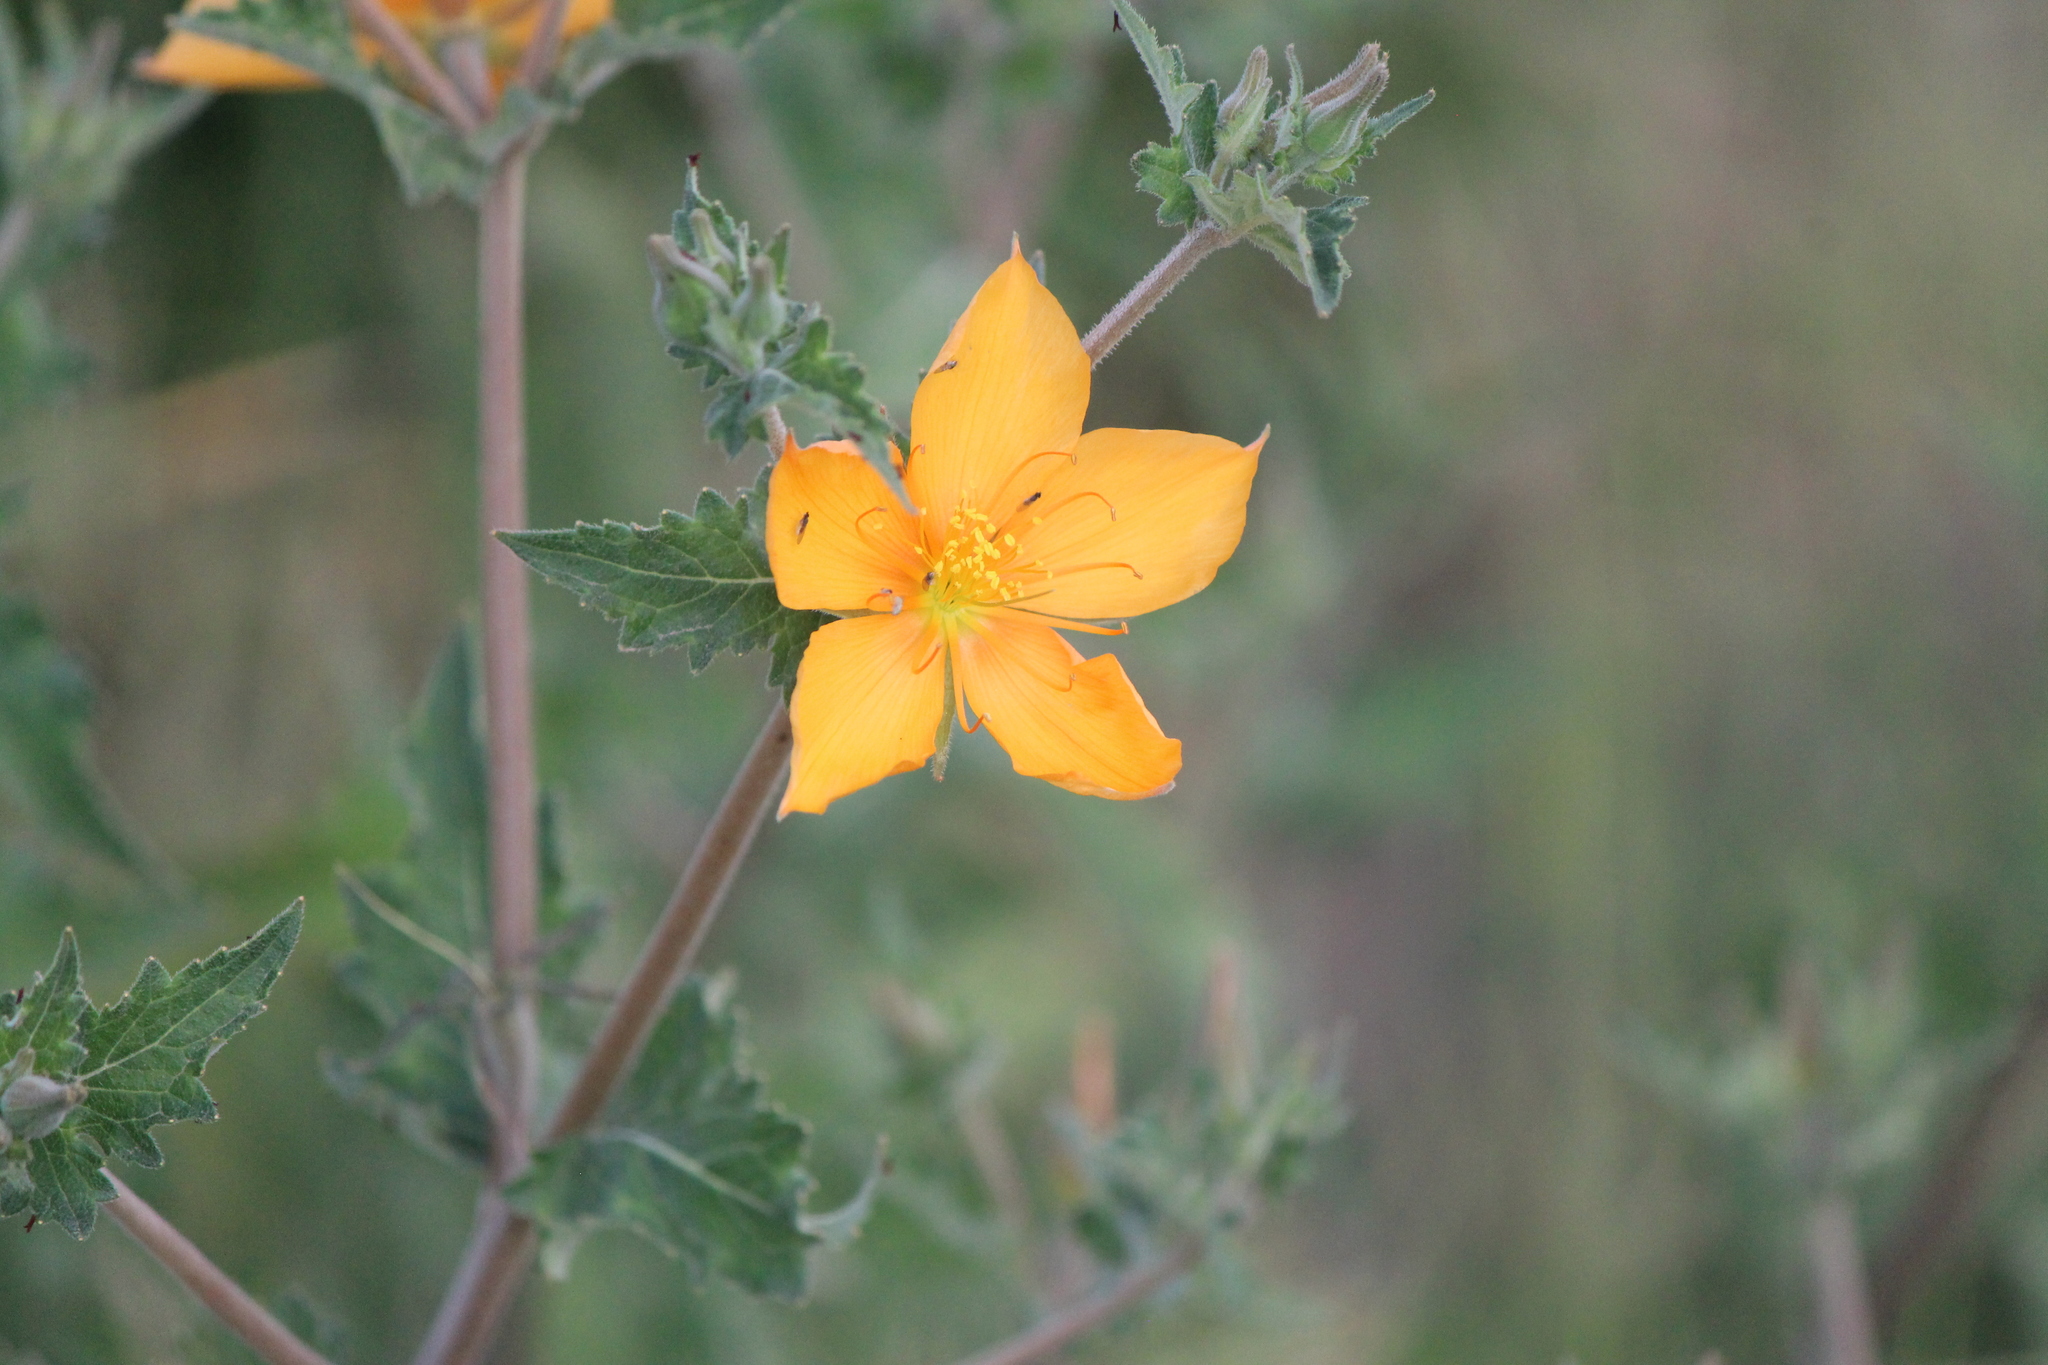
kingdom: Plantae
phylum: Tracheophyta
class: Magnoliopsida
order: Cornales
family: Loasaceae
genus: Mentzelia
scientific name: Mentzelia hispida
